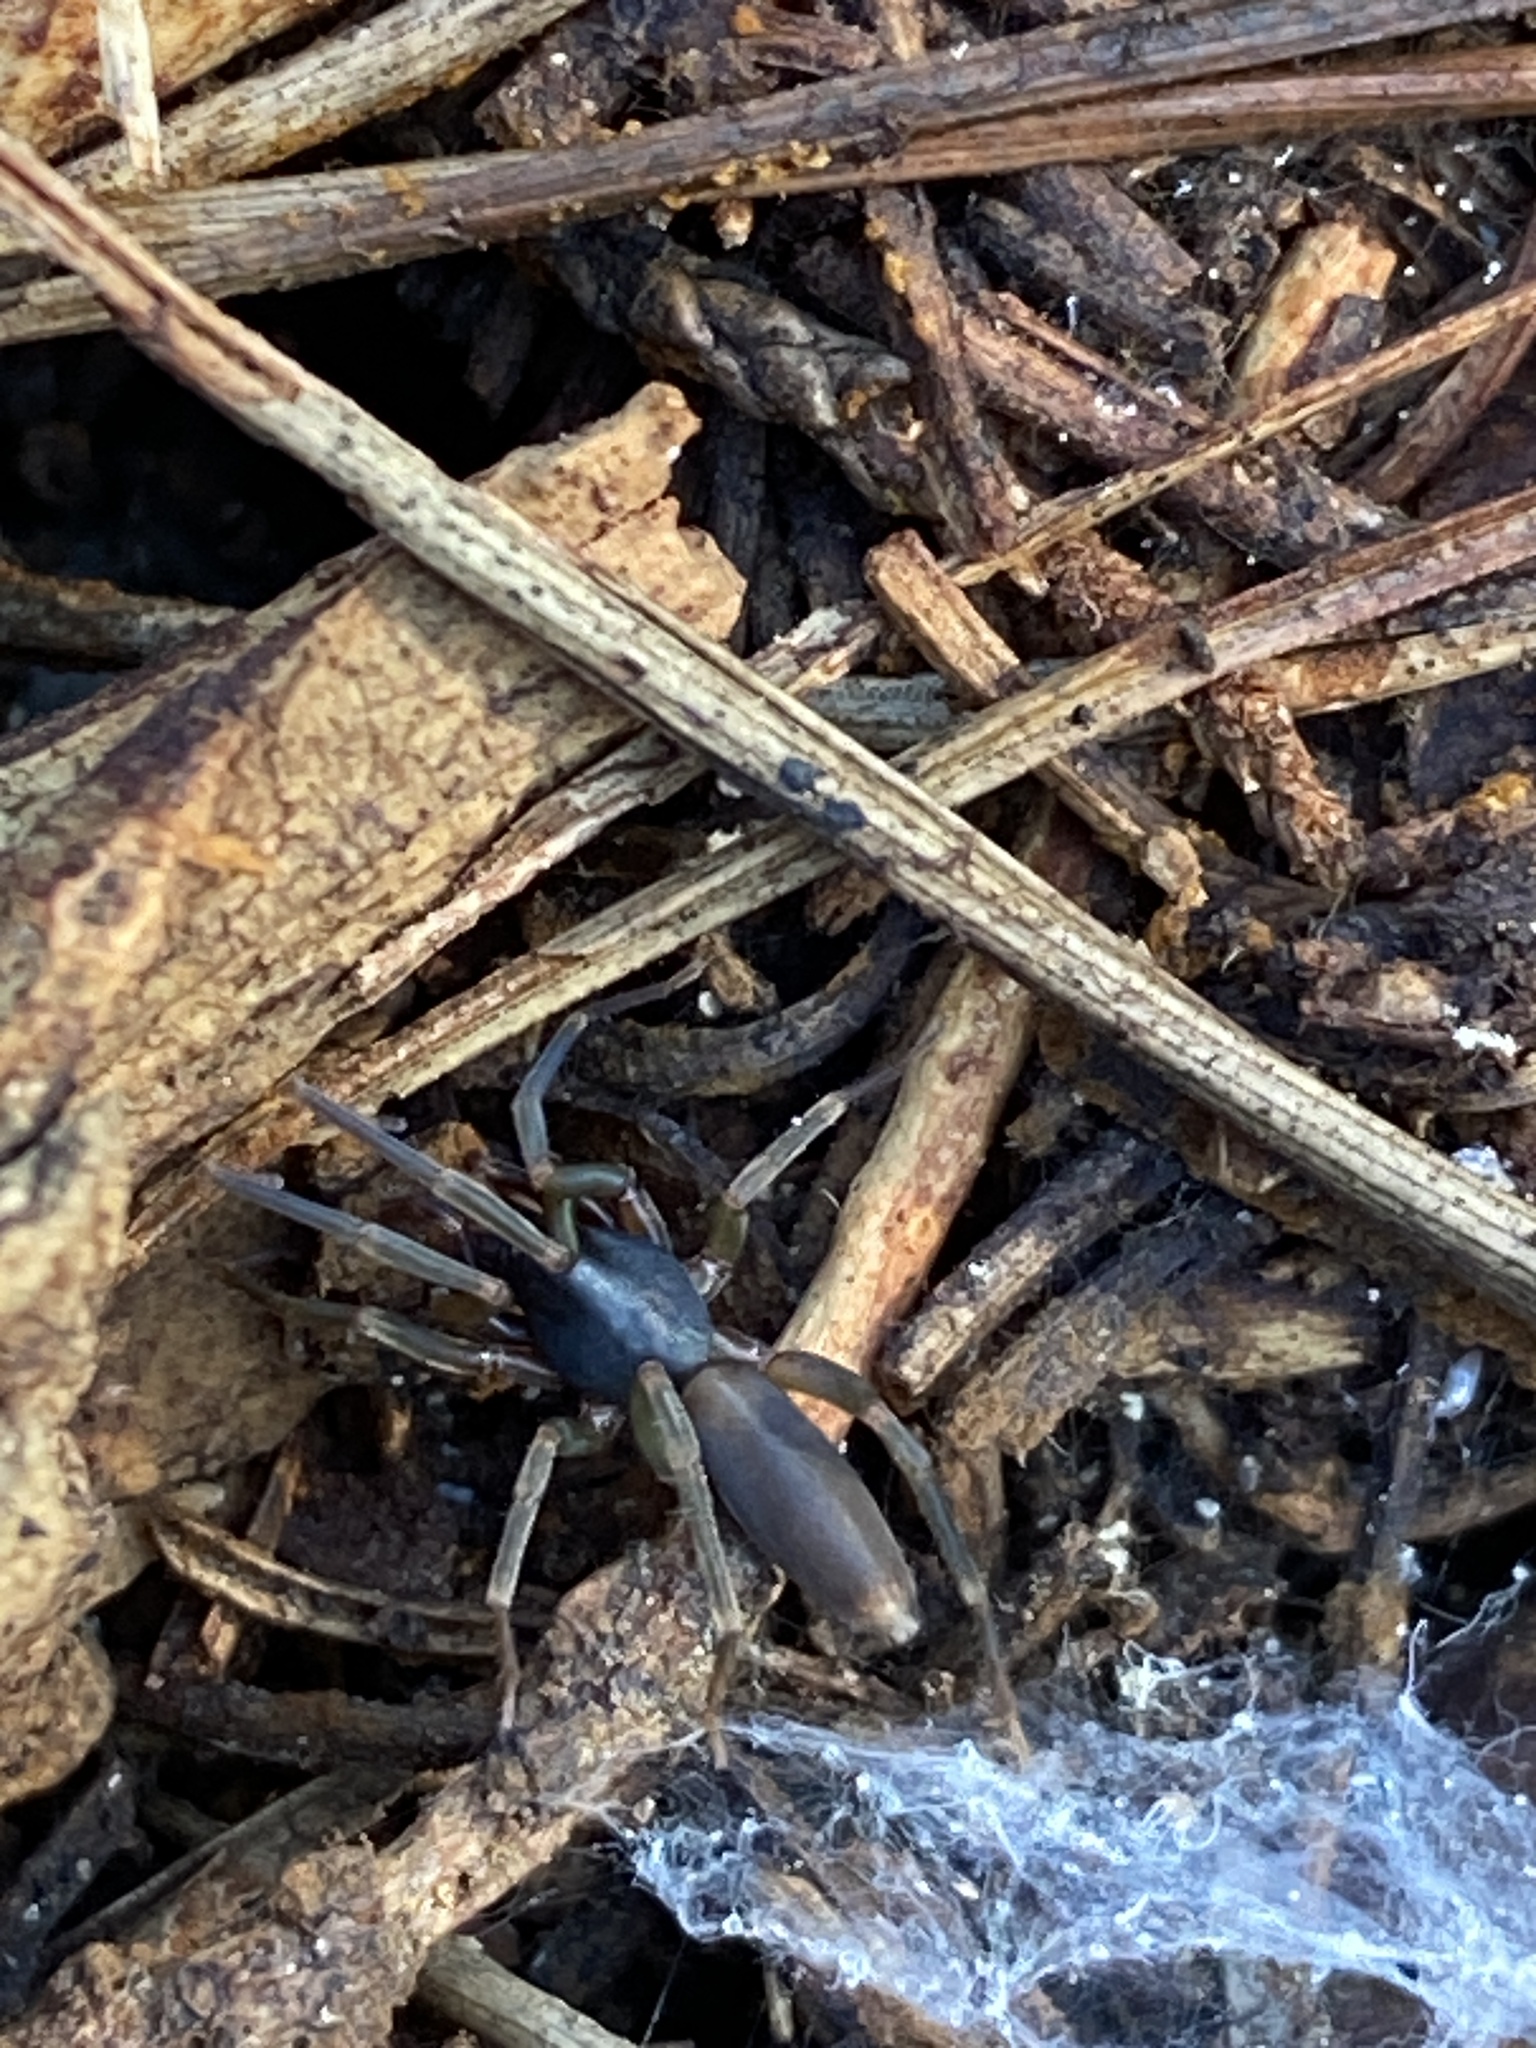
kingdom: Animalia
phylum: Arthropoda
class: Arachnida
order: Araneae
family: Dysderidae
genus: Harpactea
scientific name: Harpactea hombergi
